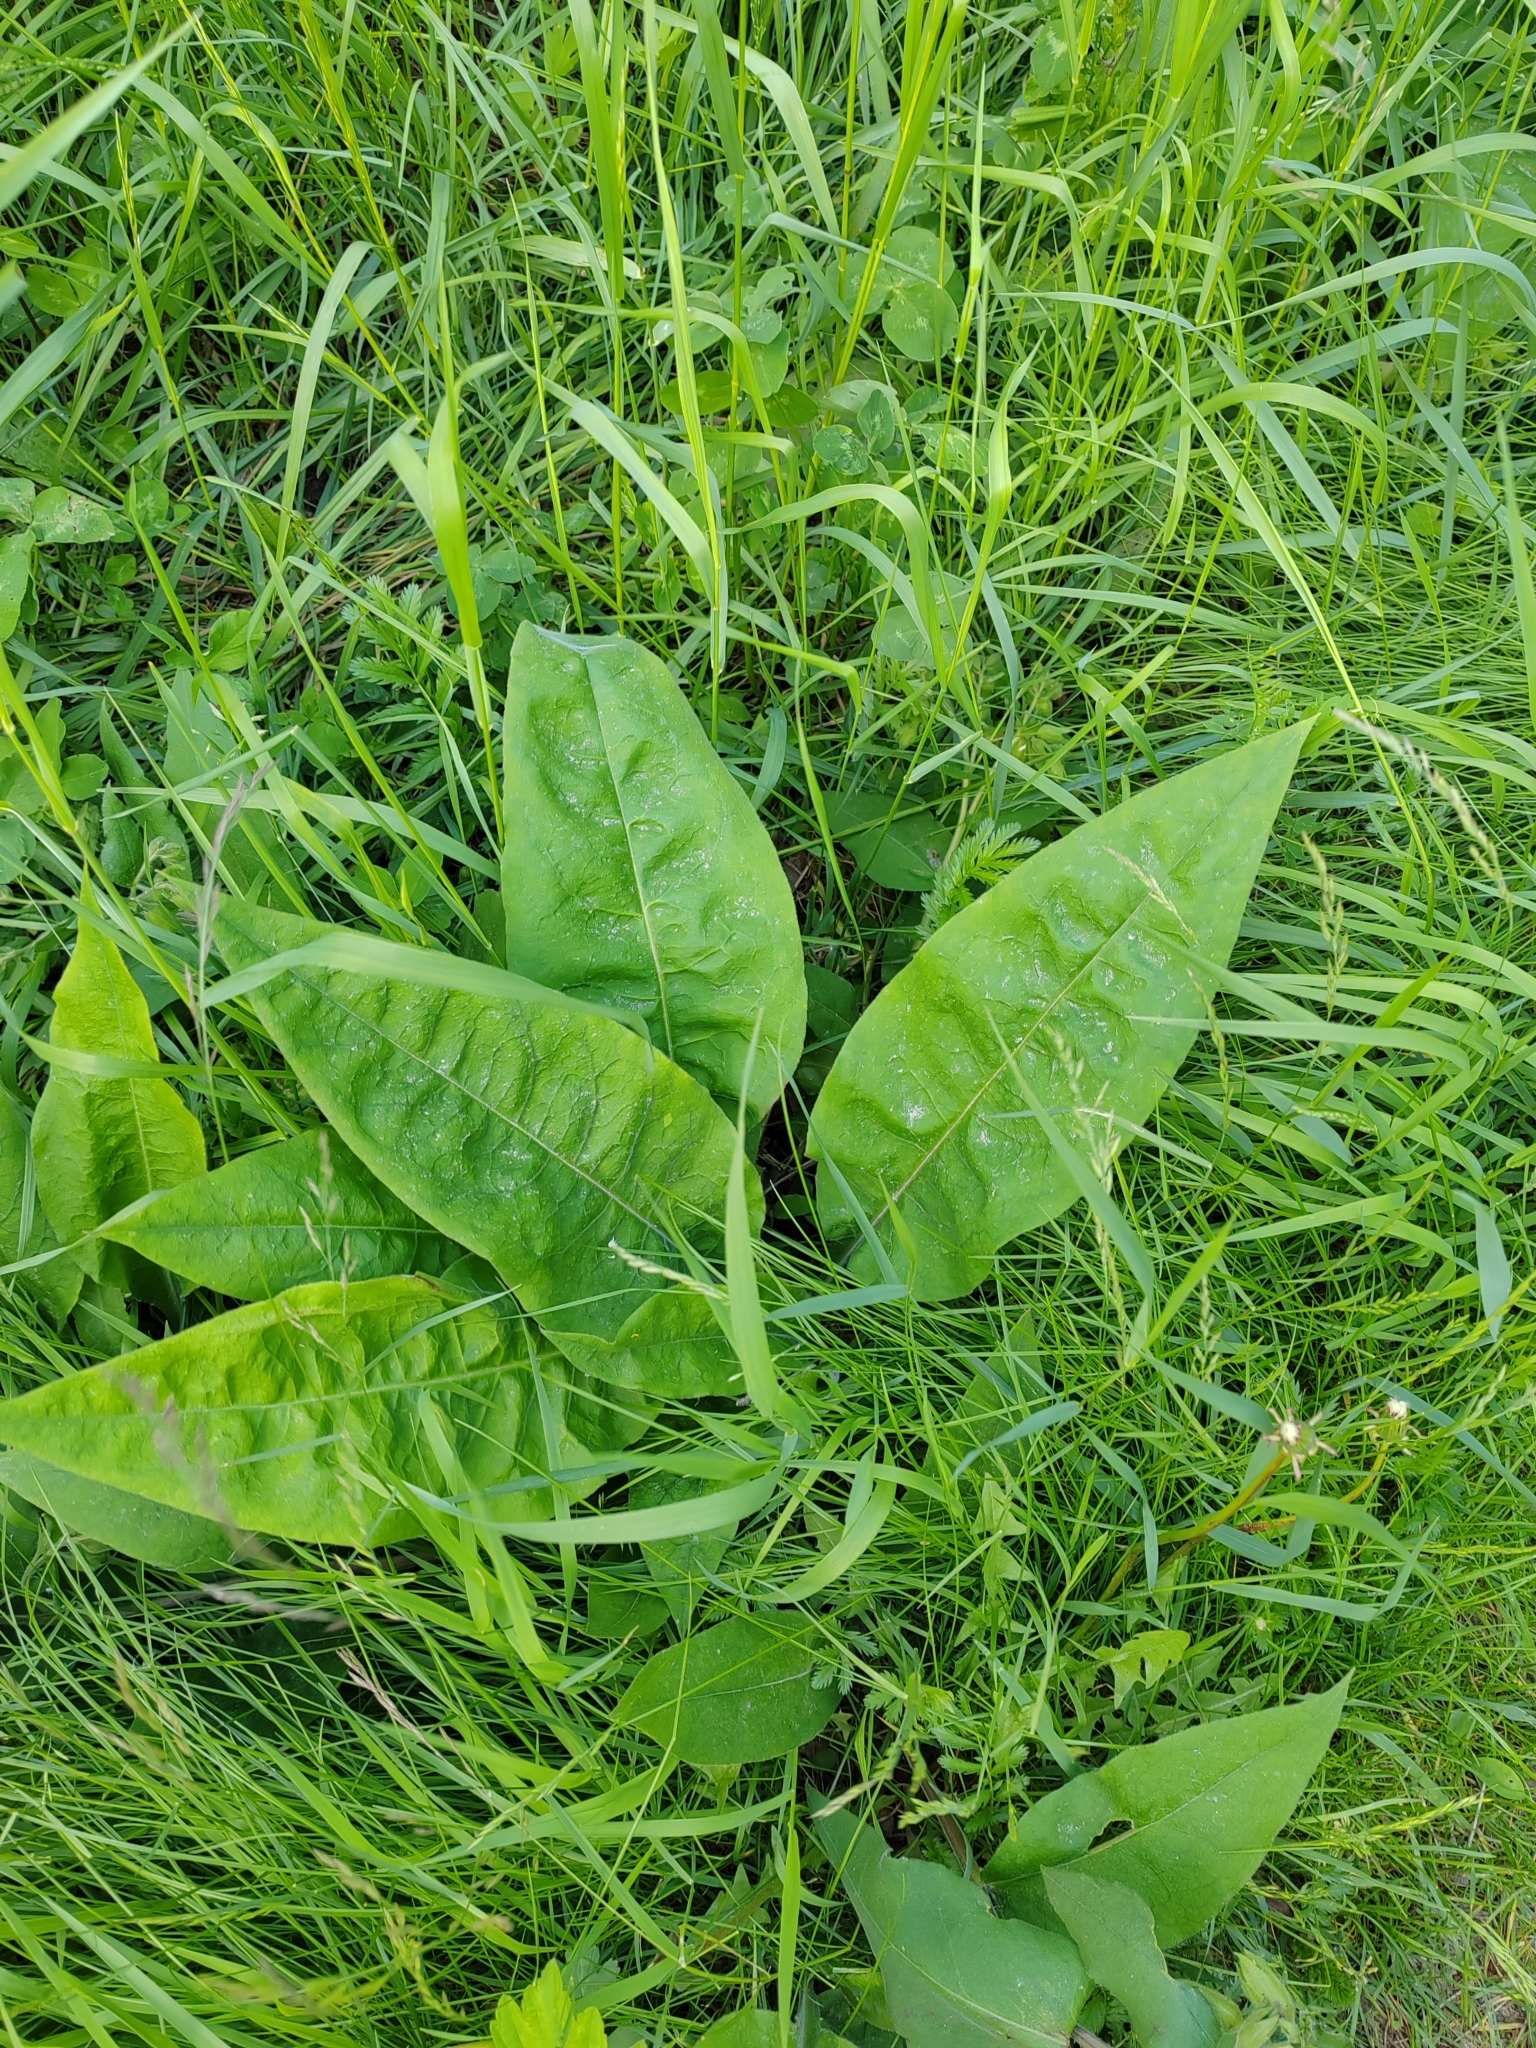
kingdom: Plantae
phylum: Tracheophyta
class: Magnoliopsida
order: Boraginales
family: Boraginaceae
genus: Pulmonaria
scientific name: Pulmonaria mollis
